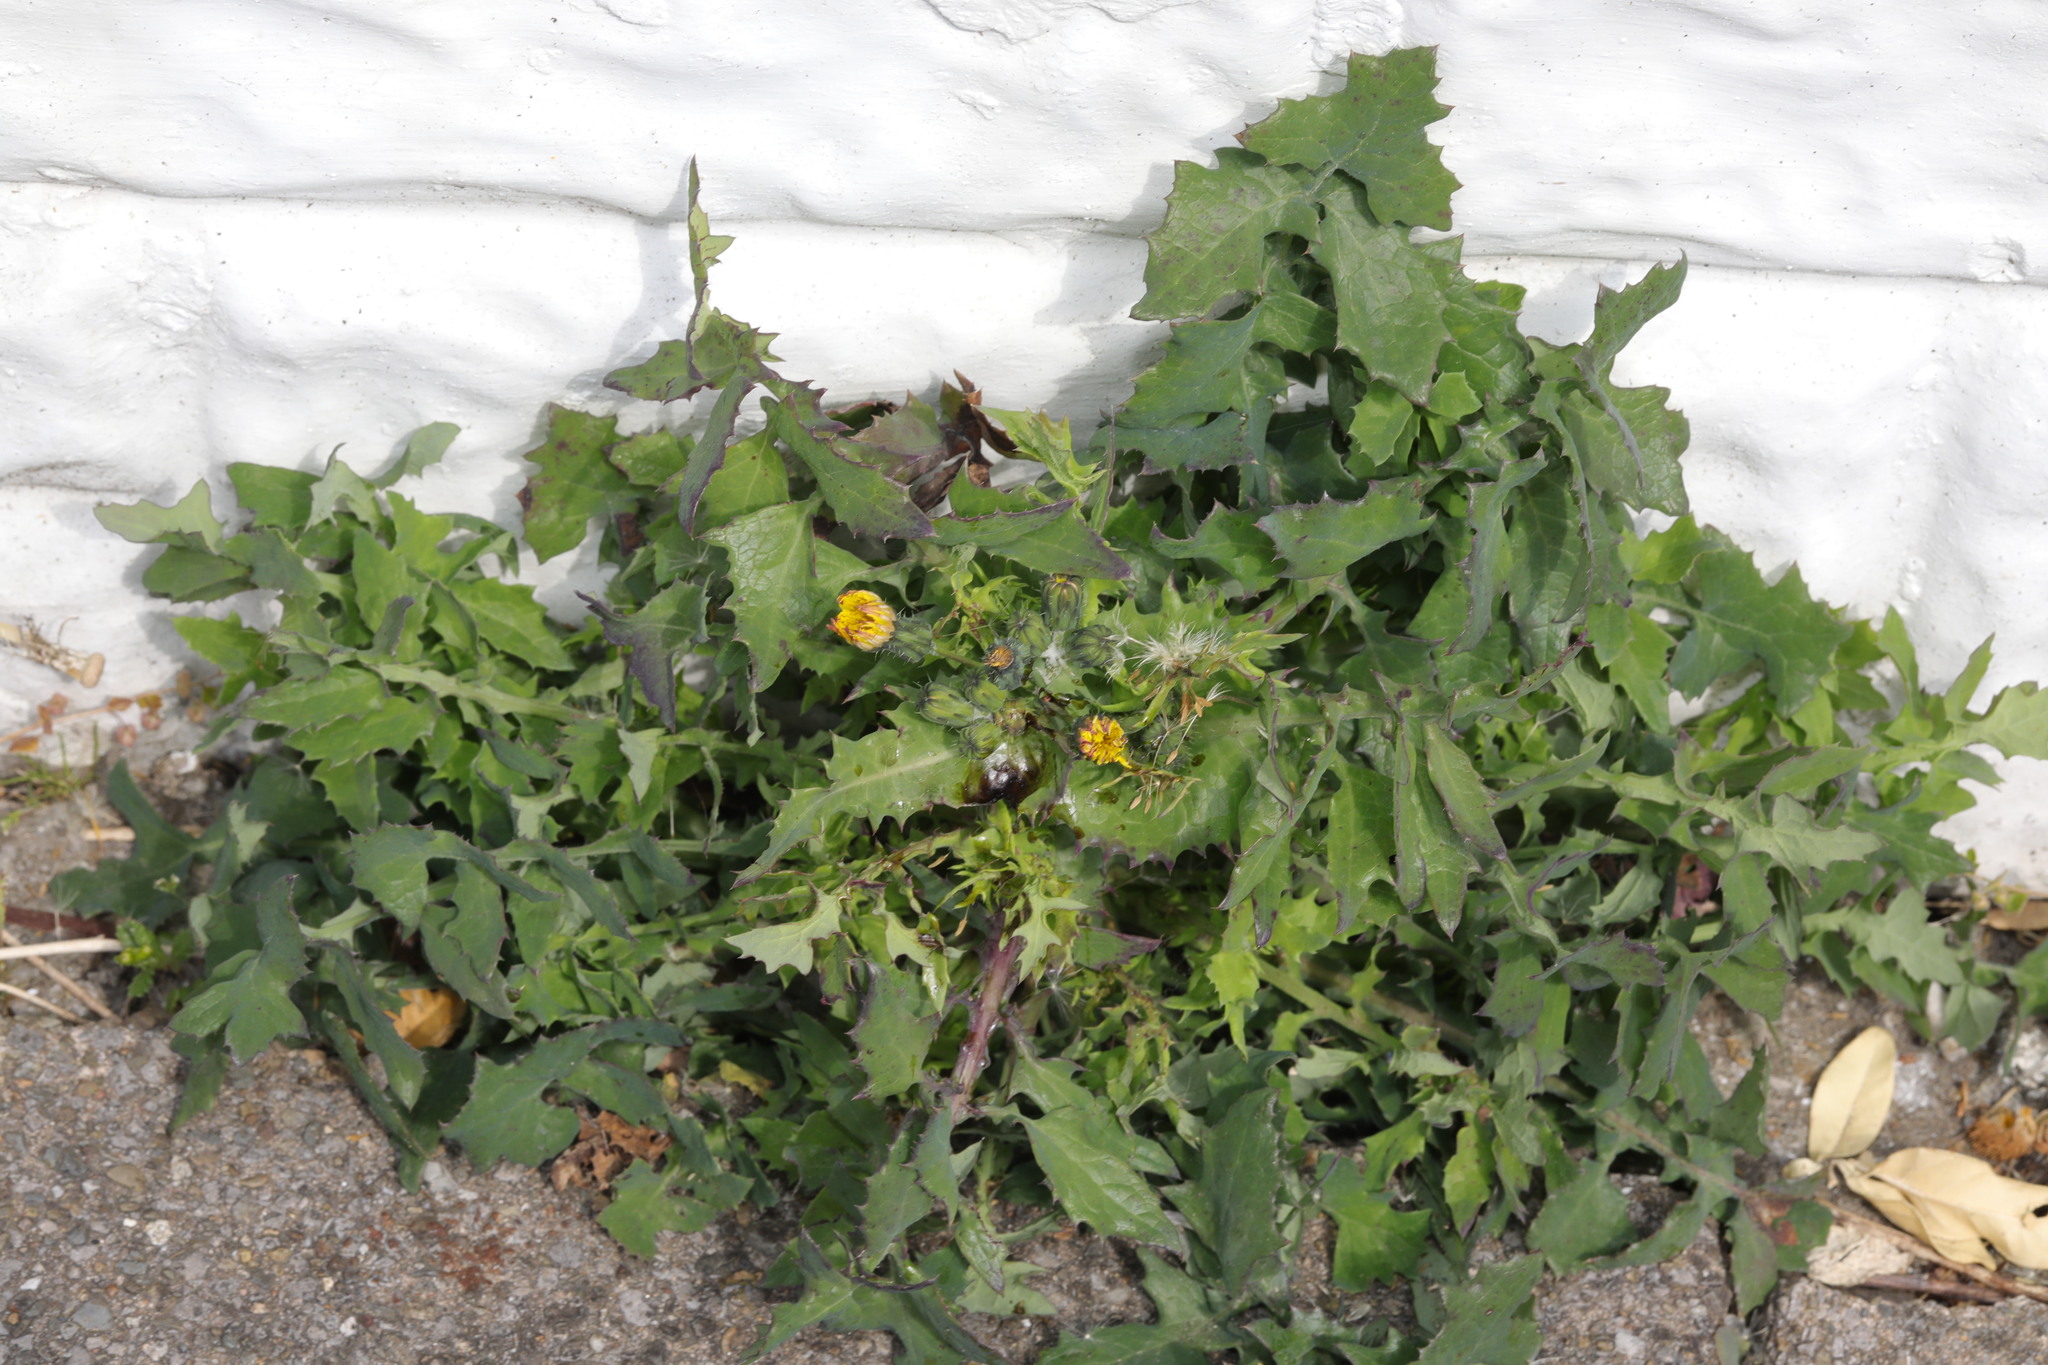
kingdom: Plantae
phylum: Tracheophyta
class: Magnoliopsida
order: Asterales
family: Asteraceae
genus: Sonchus
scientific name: Sonchus oleraceus
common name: Common sowthistle
